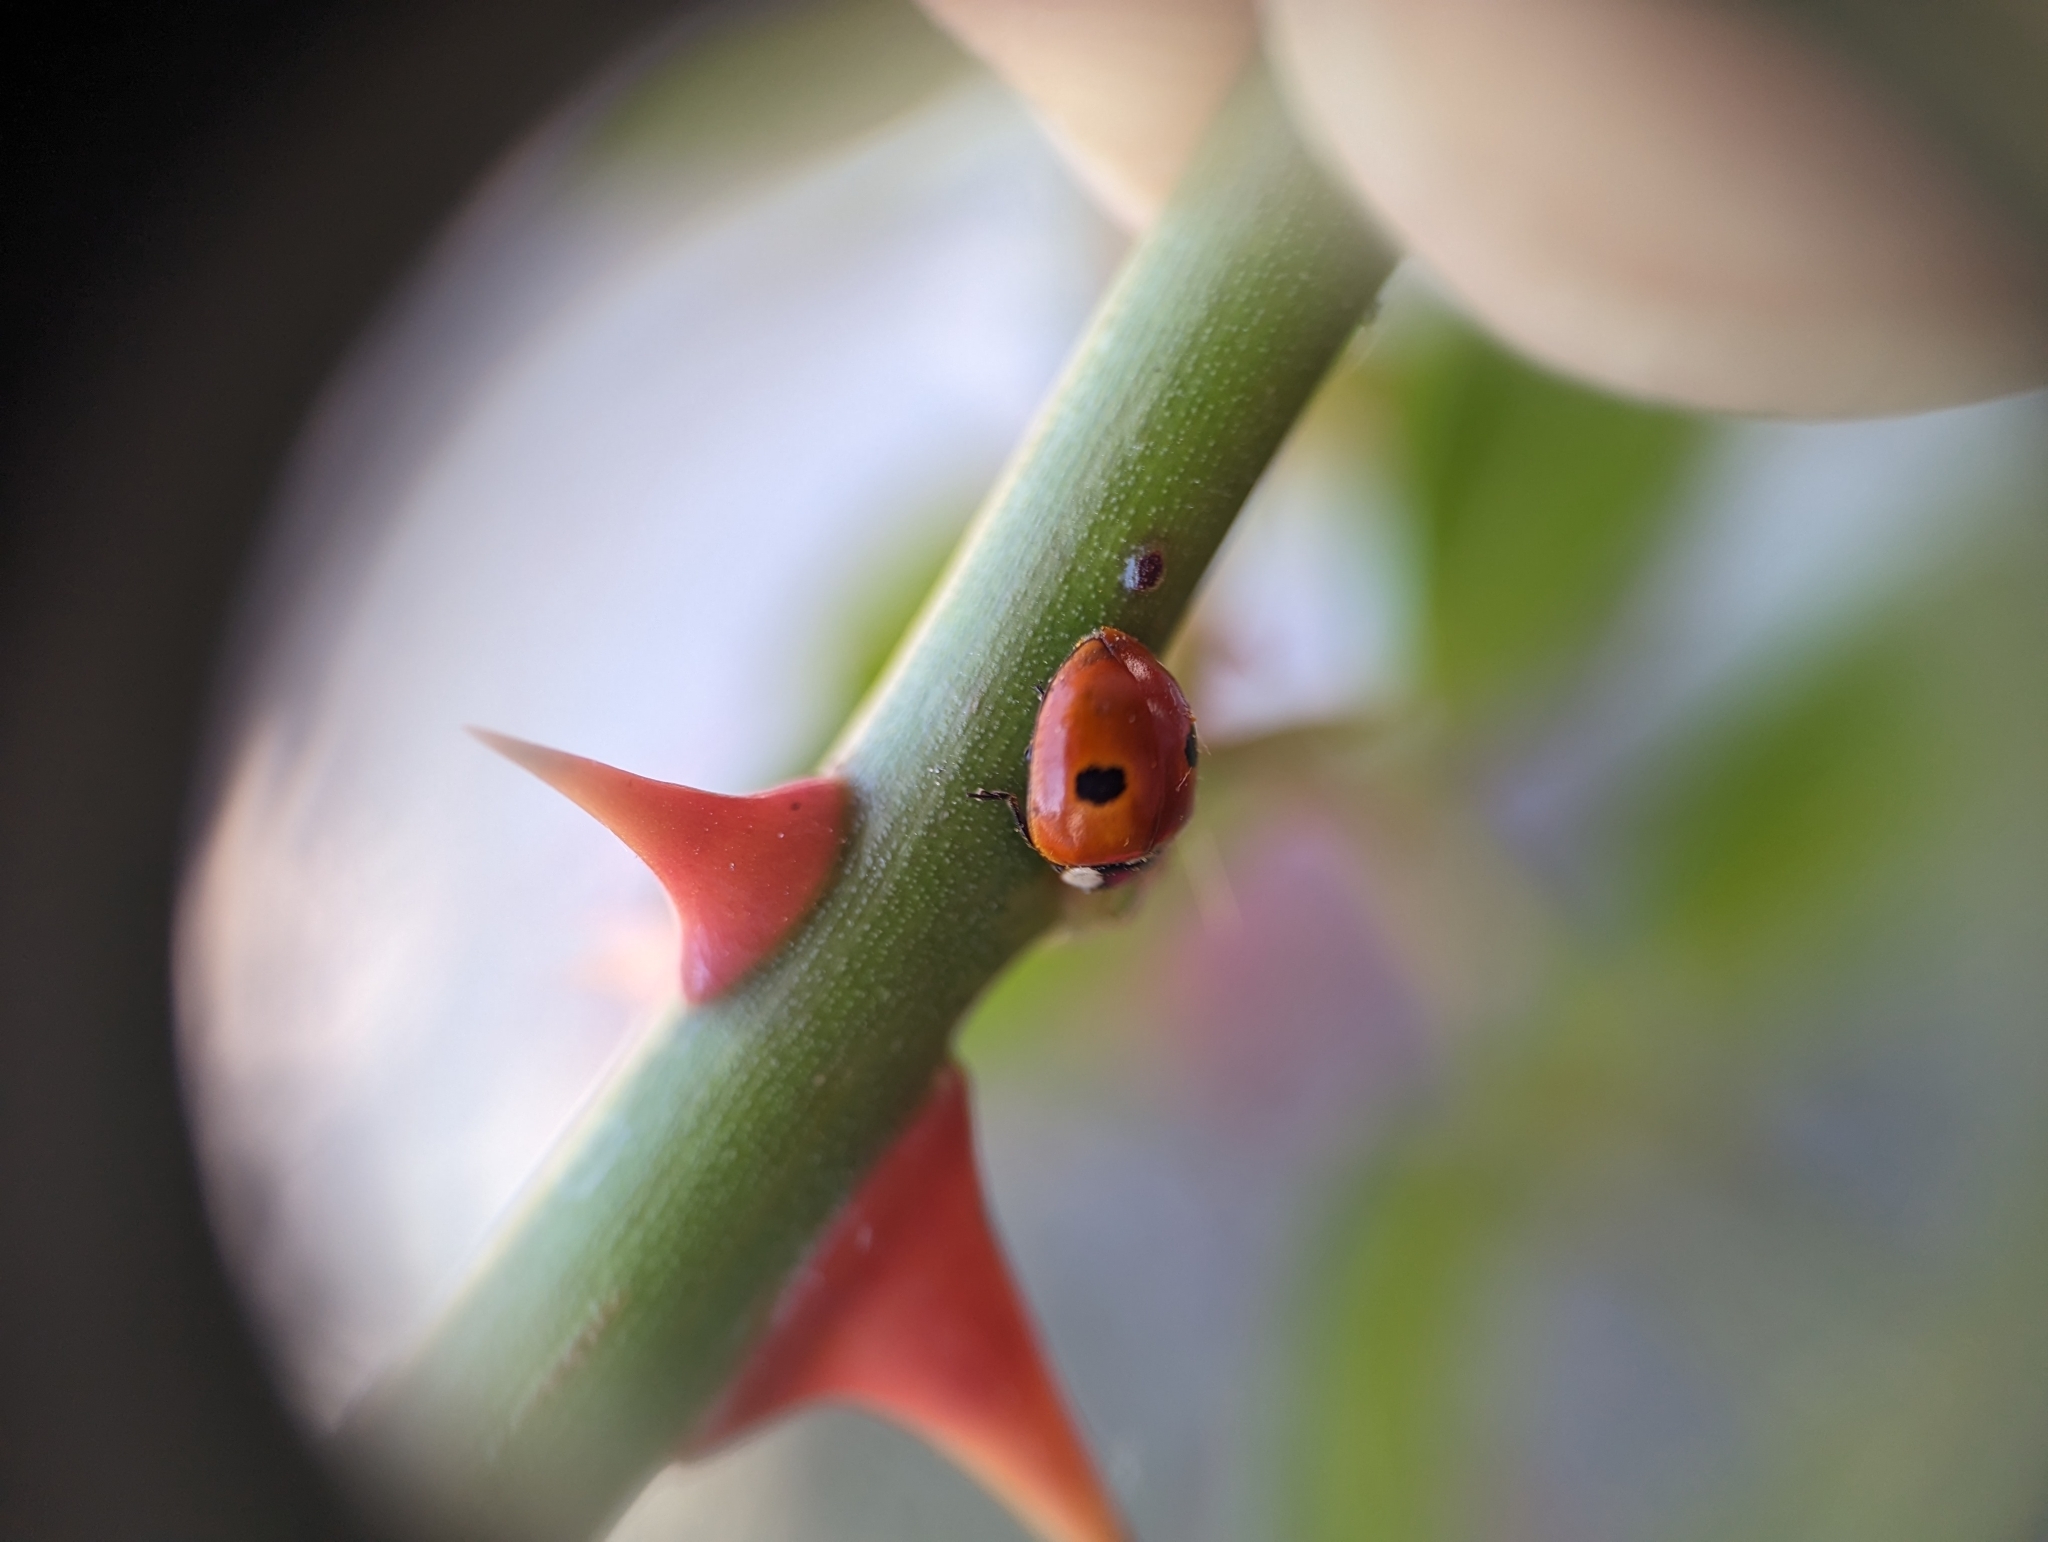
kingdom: Animalia
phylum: Arthropoda
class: Insecta
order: Coleoptera
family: Coccinellidae
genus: Adalia
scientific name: Adalia bipunctata
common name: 2-spot ladybird
